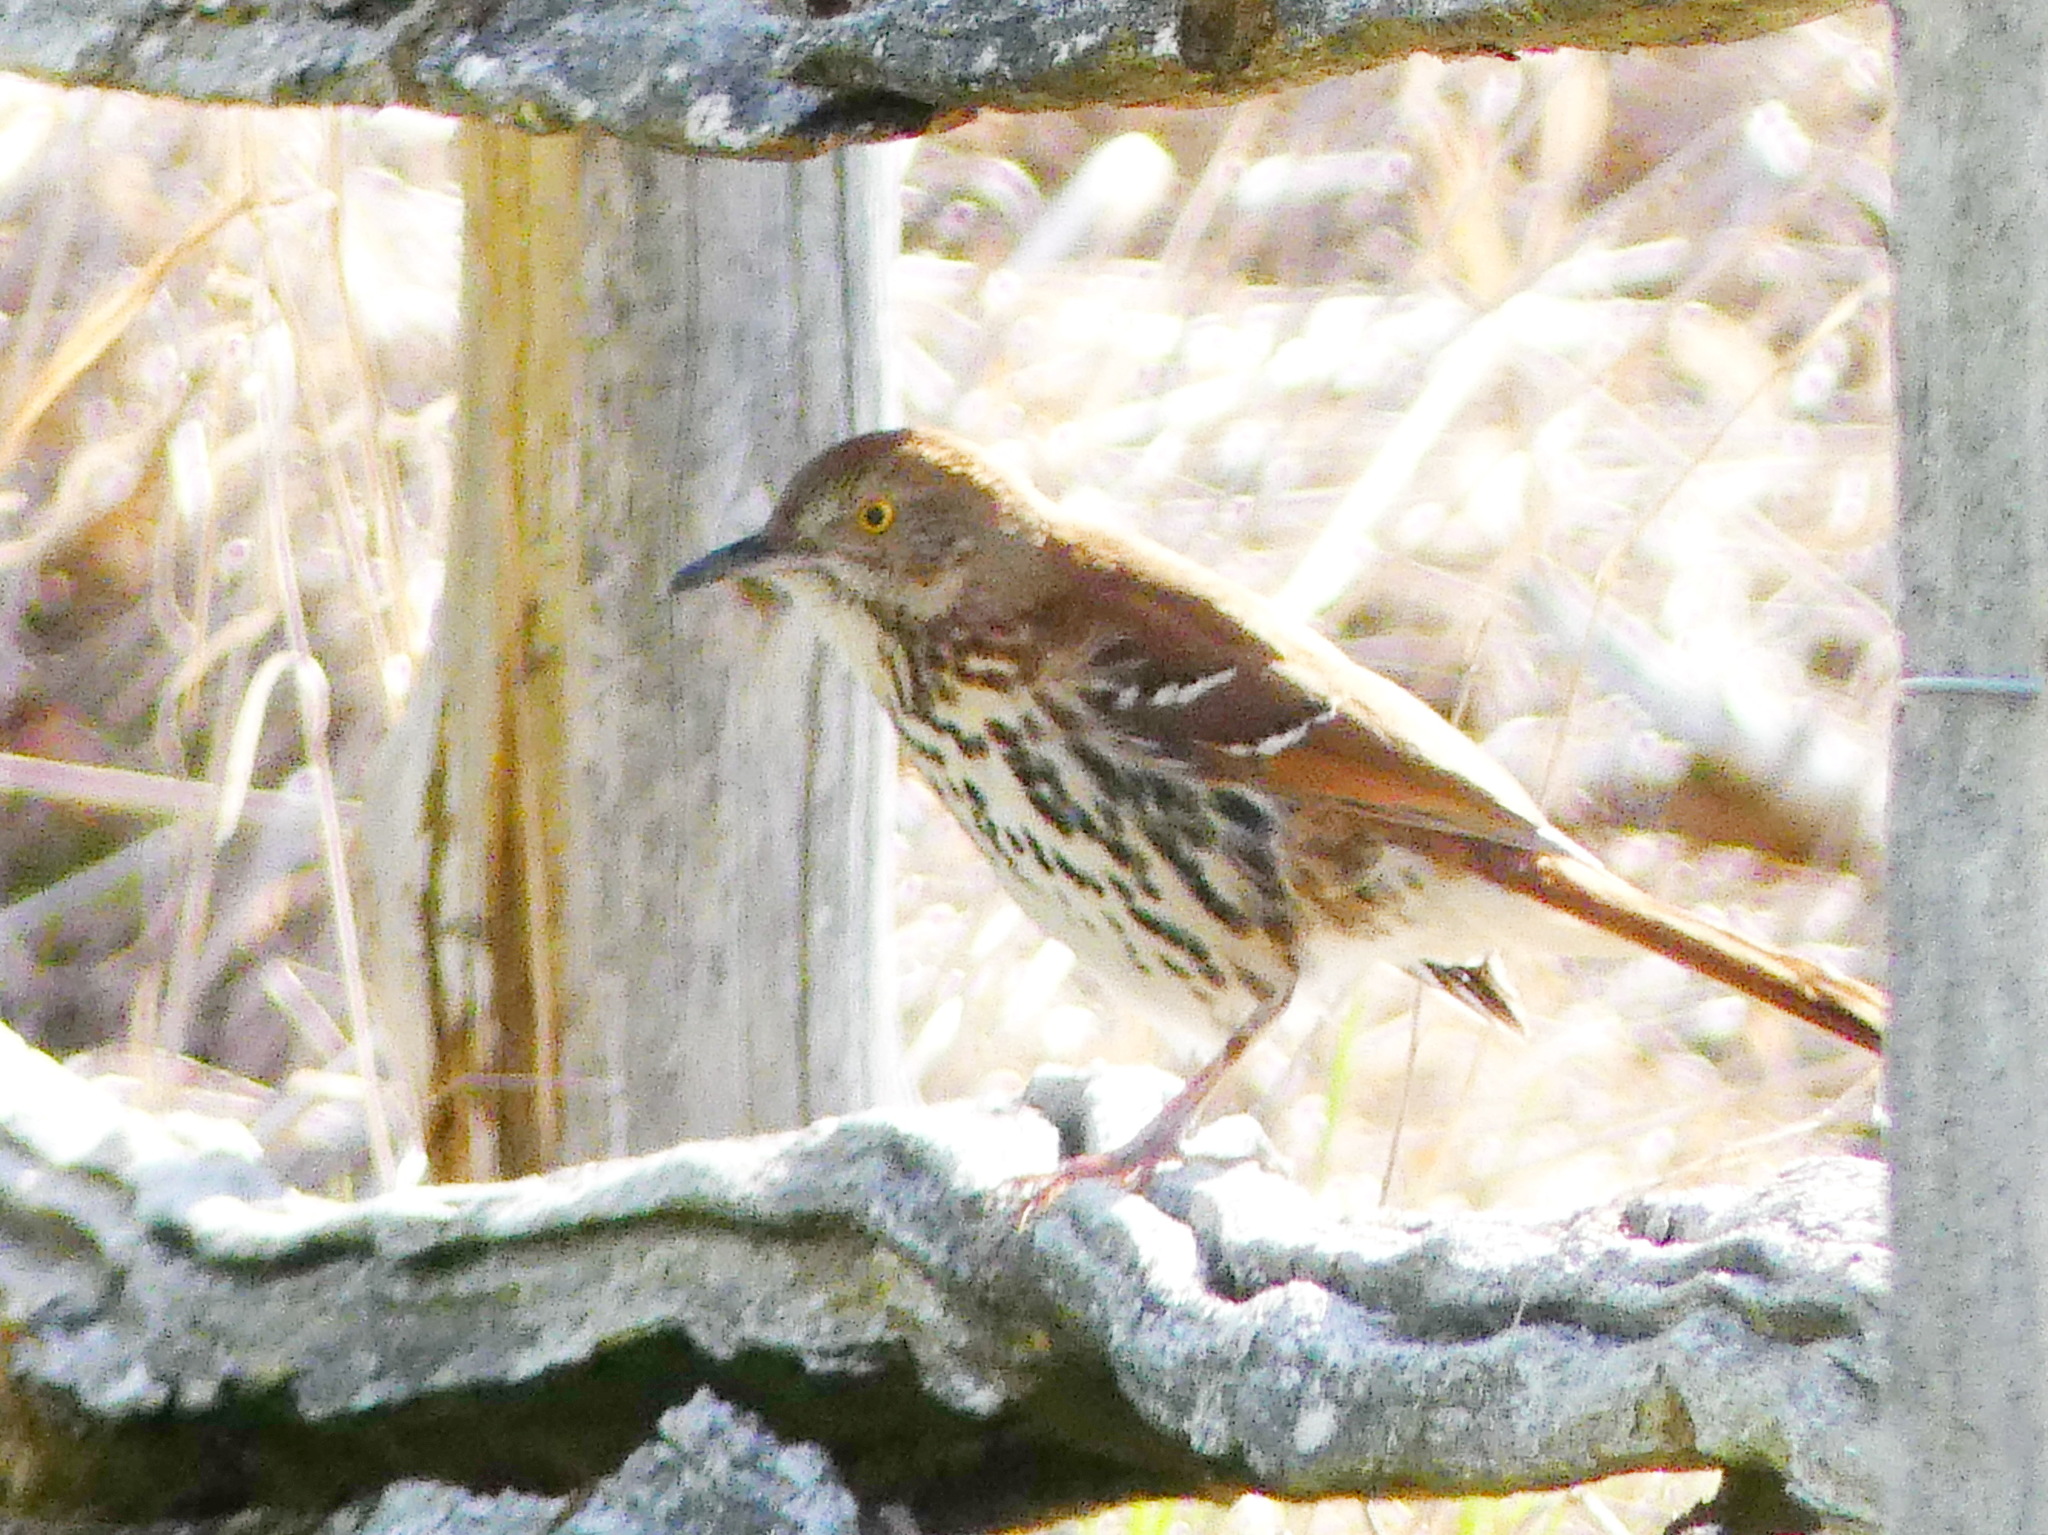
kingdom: Animalia
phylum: Chordata
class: Aves
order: Passeriformes
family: Mimidae
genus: Toxostoma
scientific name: Toxostoma rufum
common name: Brown thrasher
